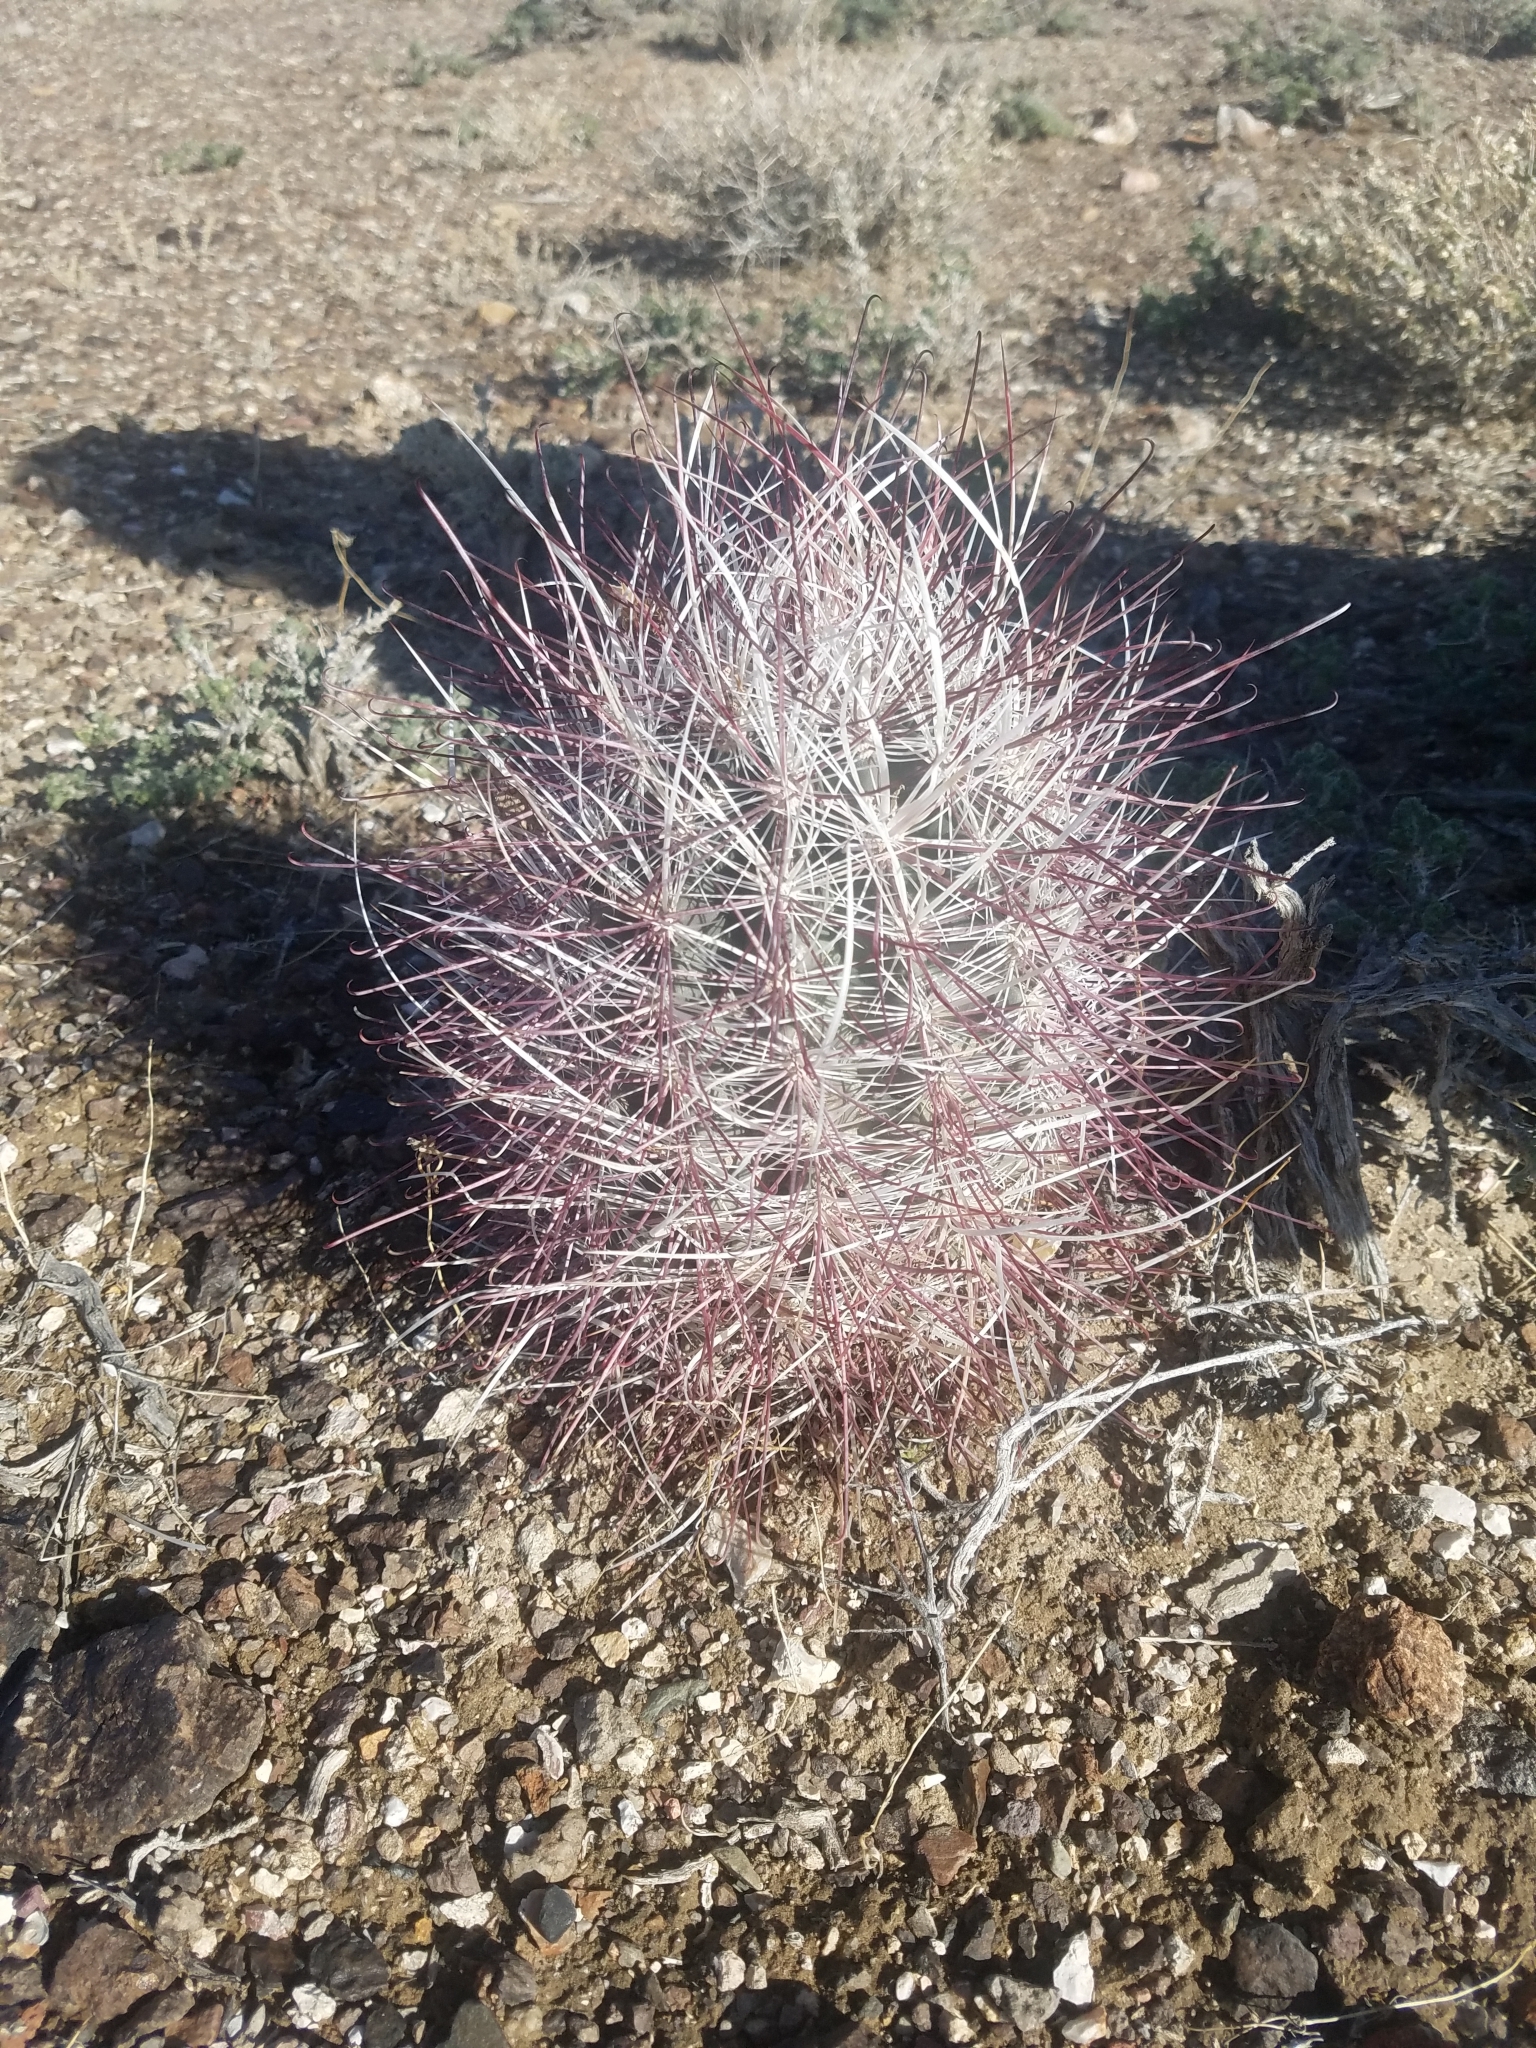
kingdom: Plantae
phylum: Tracheophyta
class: Magnoliopsida
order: Caryophyllales
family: Cactaceae
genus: Sclerocactus
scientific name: Sclerocactus polyancistrus
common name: Mohave fishhook cactus
